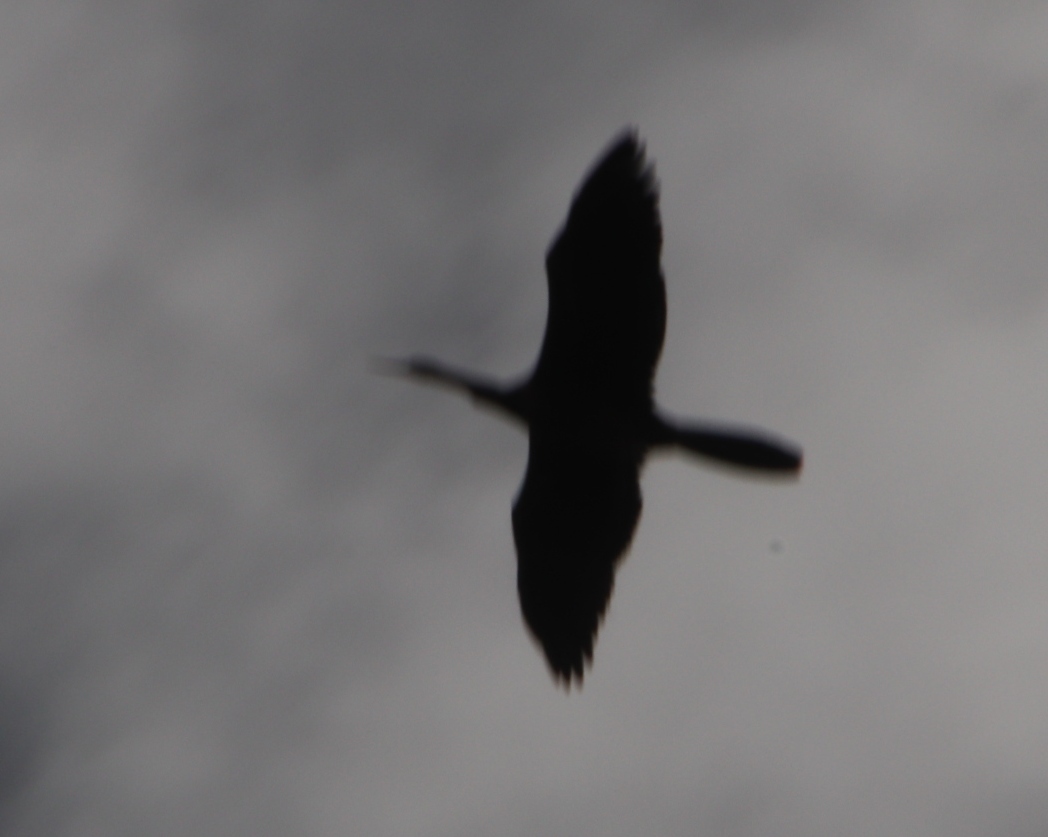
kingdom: Animalia
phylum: Chordata
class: Aves
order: Suliformes
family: Phalacrocoracidae
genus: Microcarbo
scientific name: Microcarbo africanus
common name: Long-tailed cormorant
